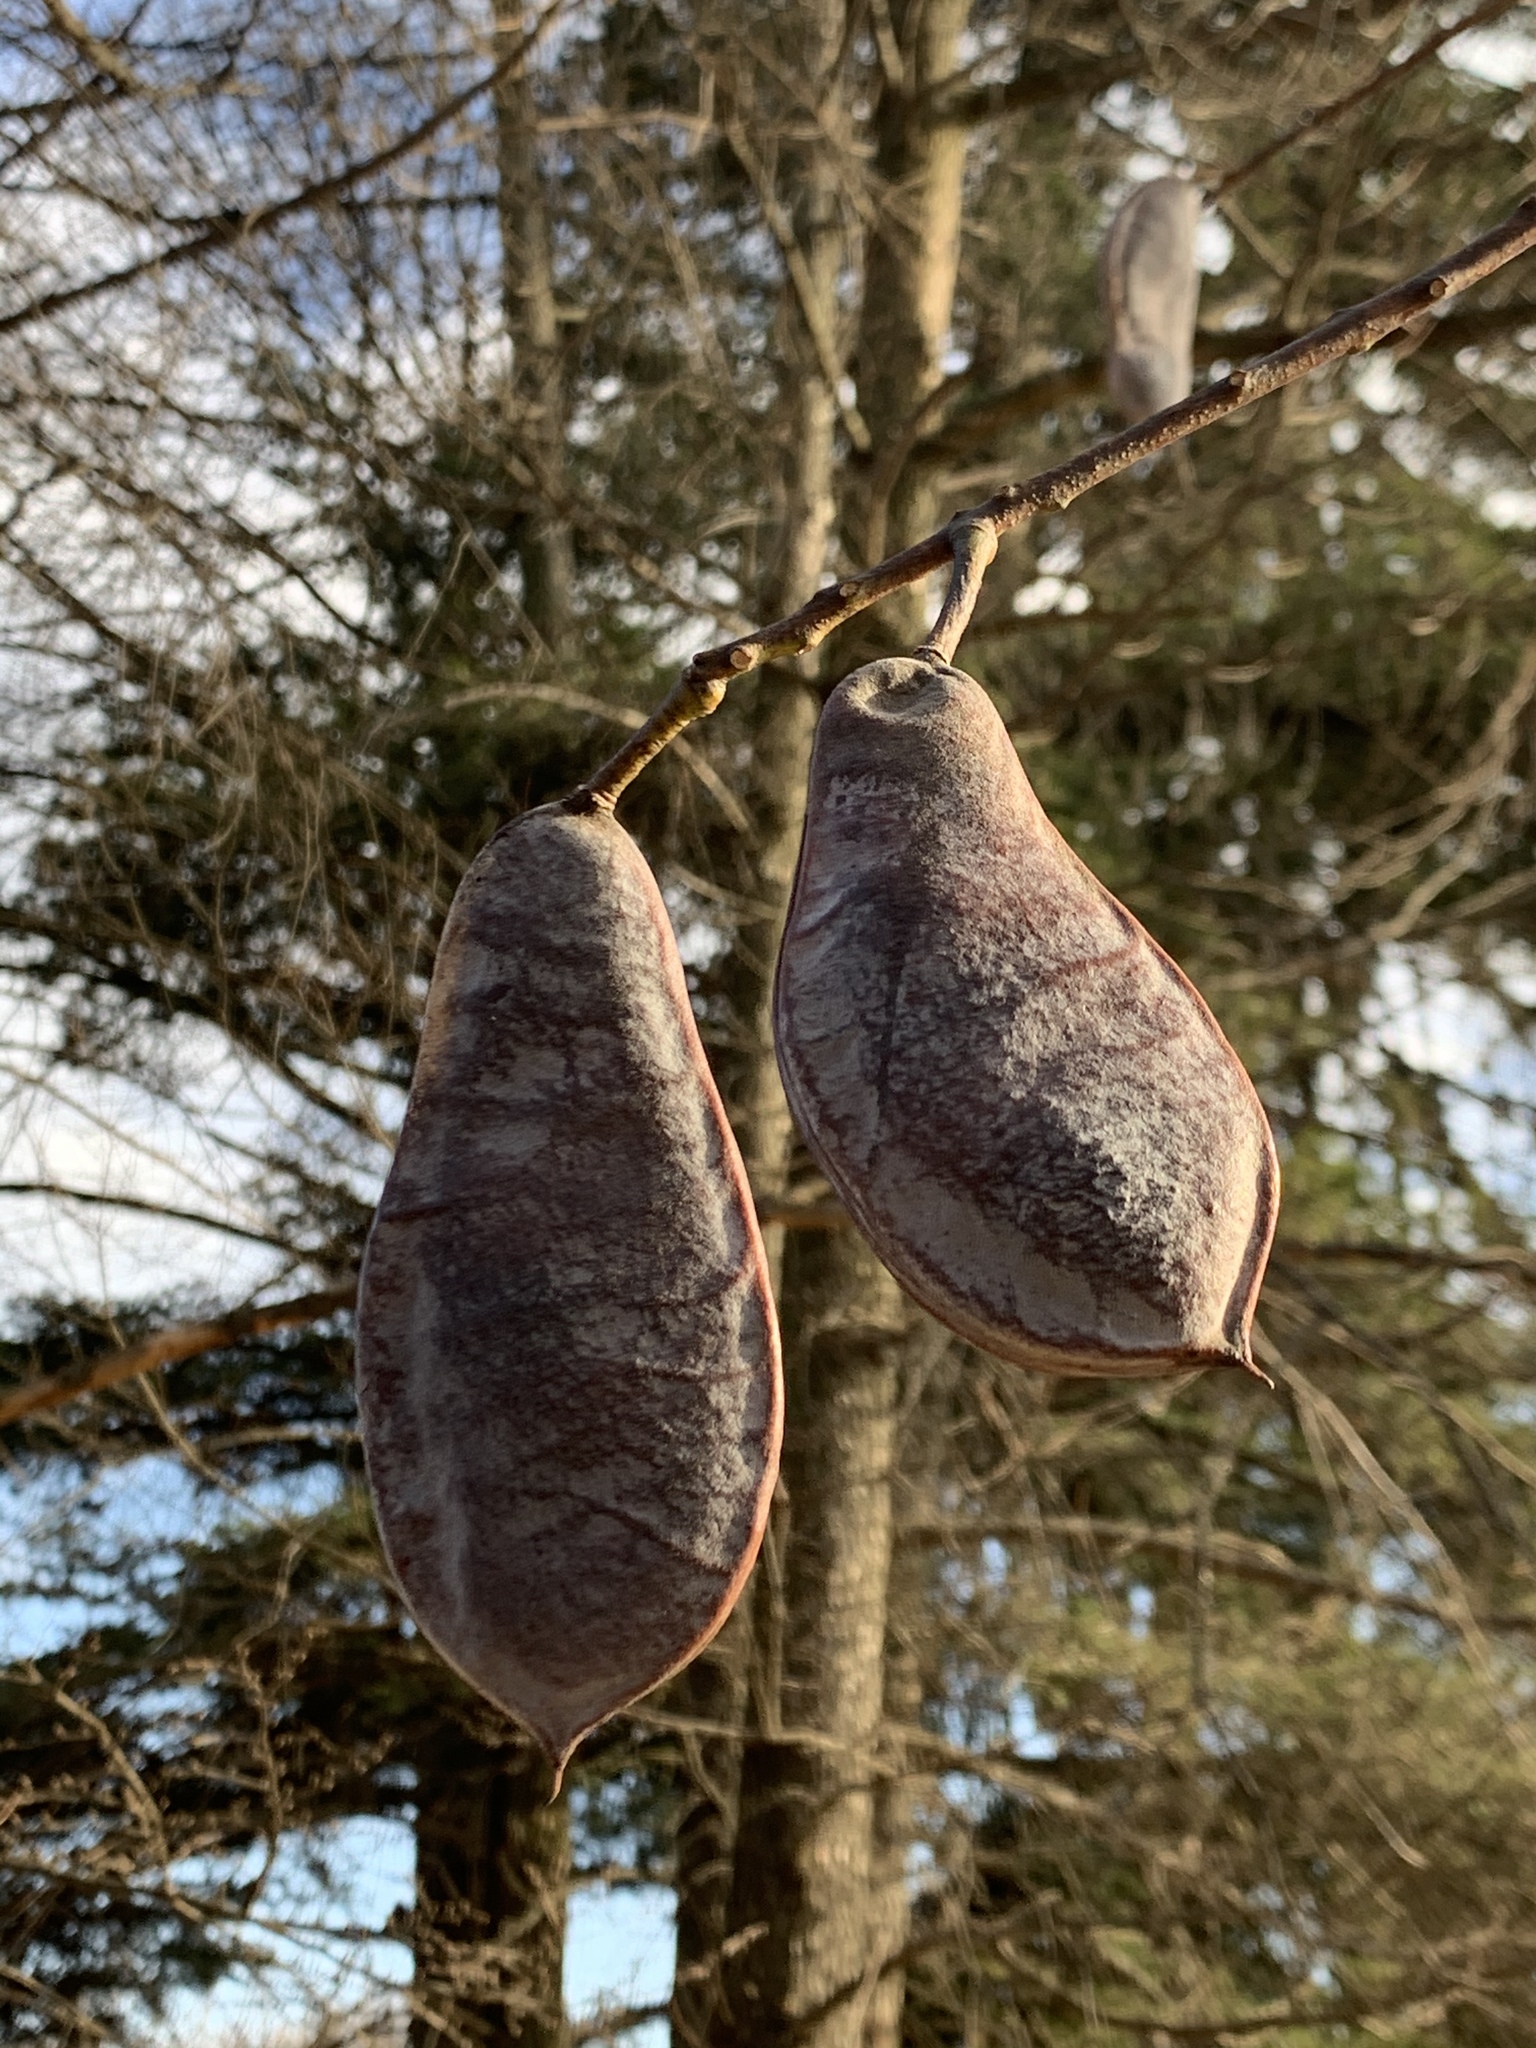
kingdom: Plantae
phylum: Tracheophyta
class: Magnoliopsida
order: Fabales
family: Fabaceae
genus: Gymnocladus
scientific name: Gymnocladus dioicus
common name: Kentucky coffee-tree
